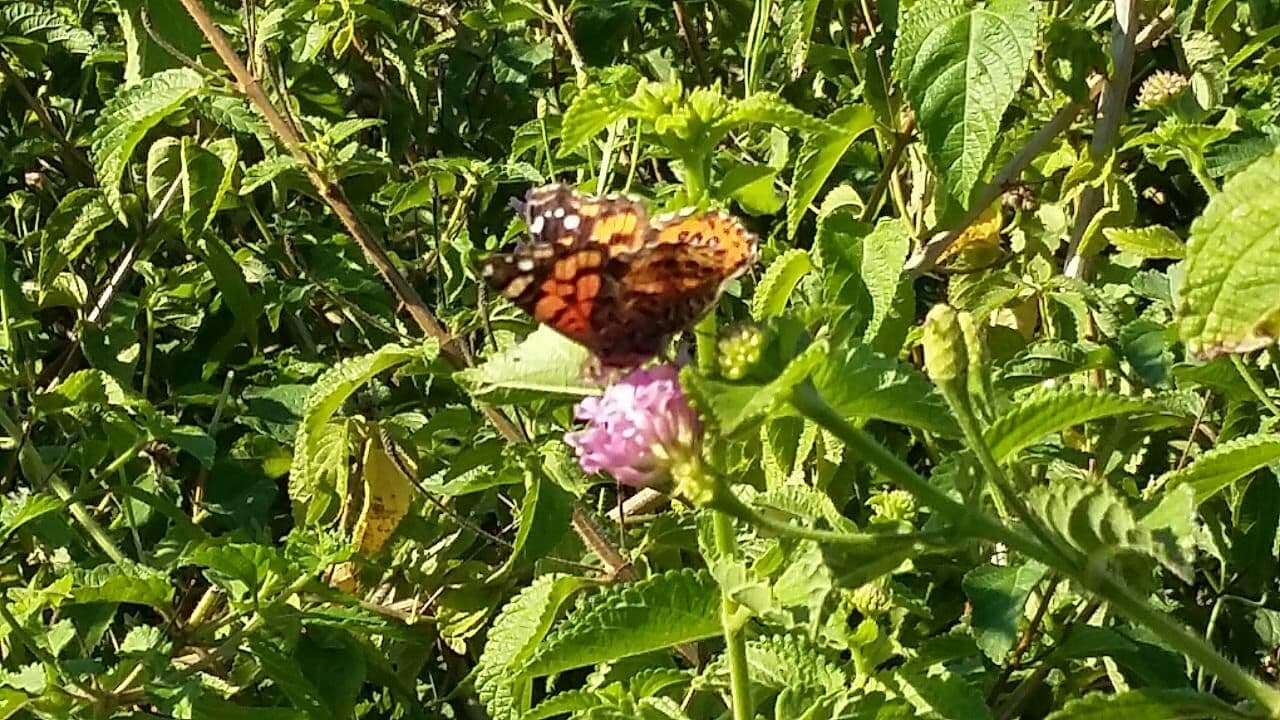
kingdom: Animalia
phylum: Arthropoda
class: Insecta
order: Lepidoptera
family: Nymphalidae
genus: Vanessa
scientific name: Vanessa carye
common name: Subtropical lady
